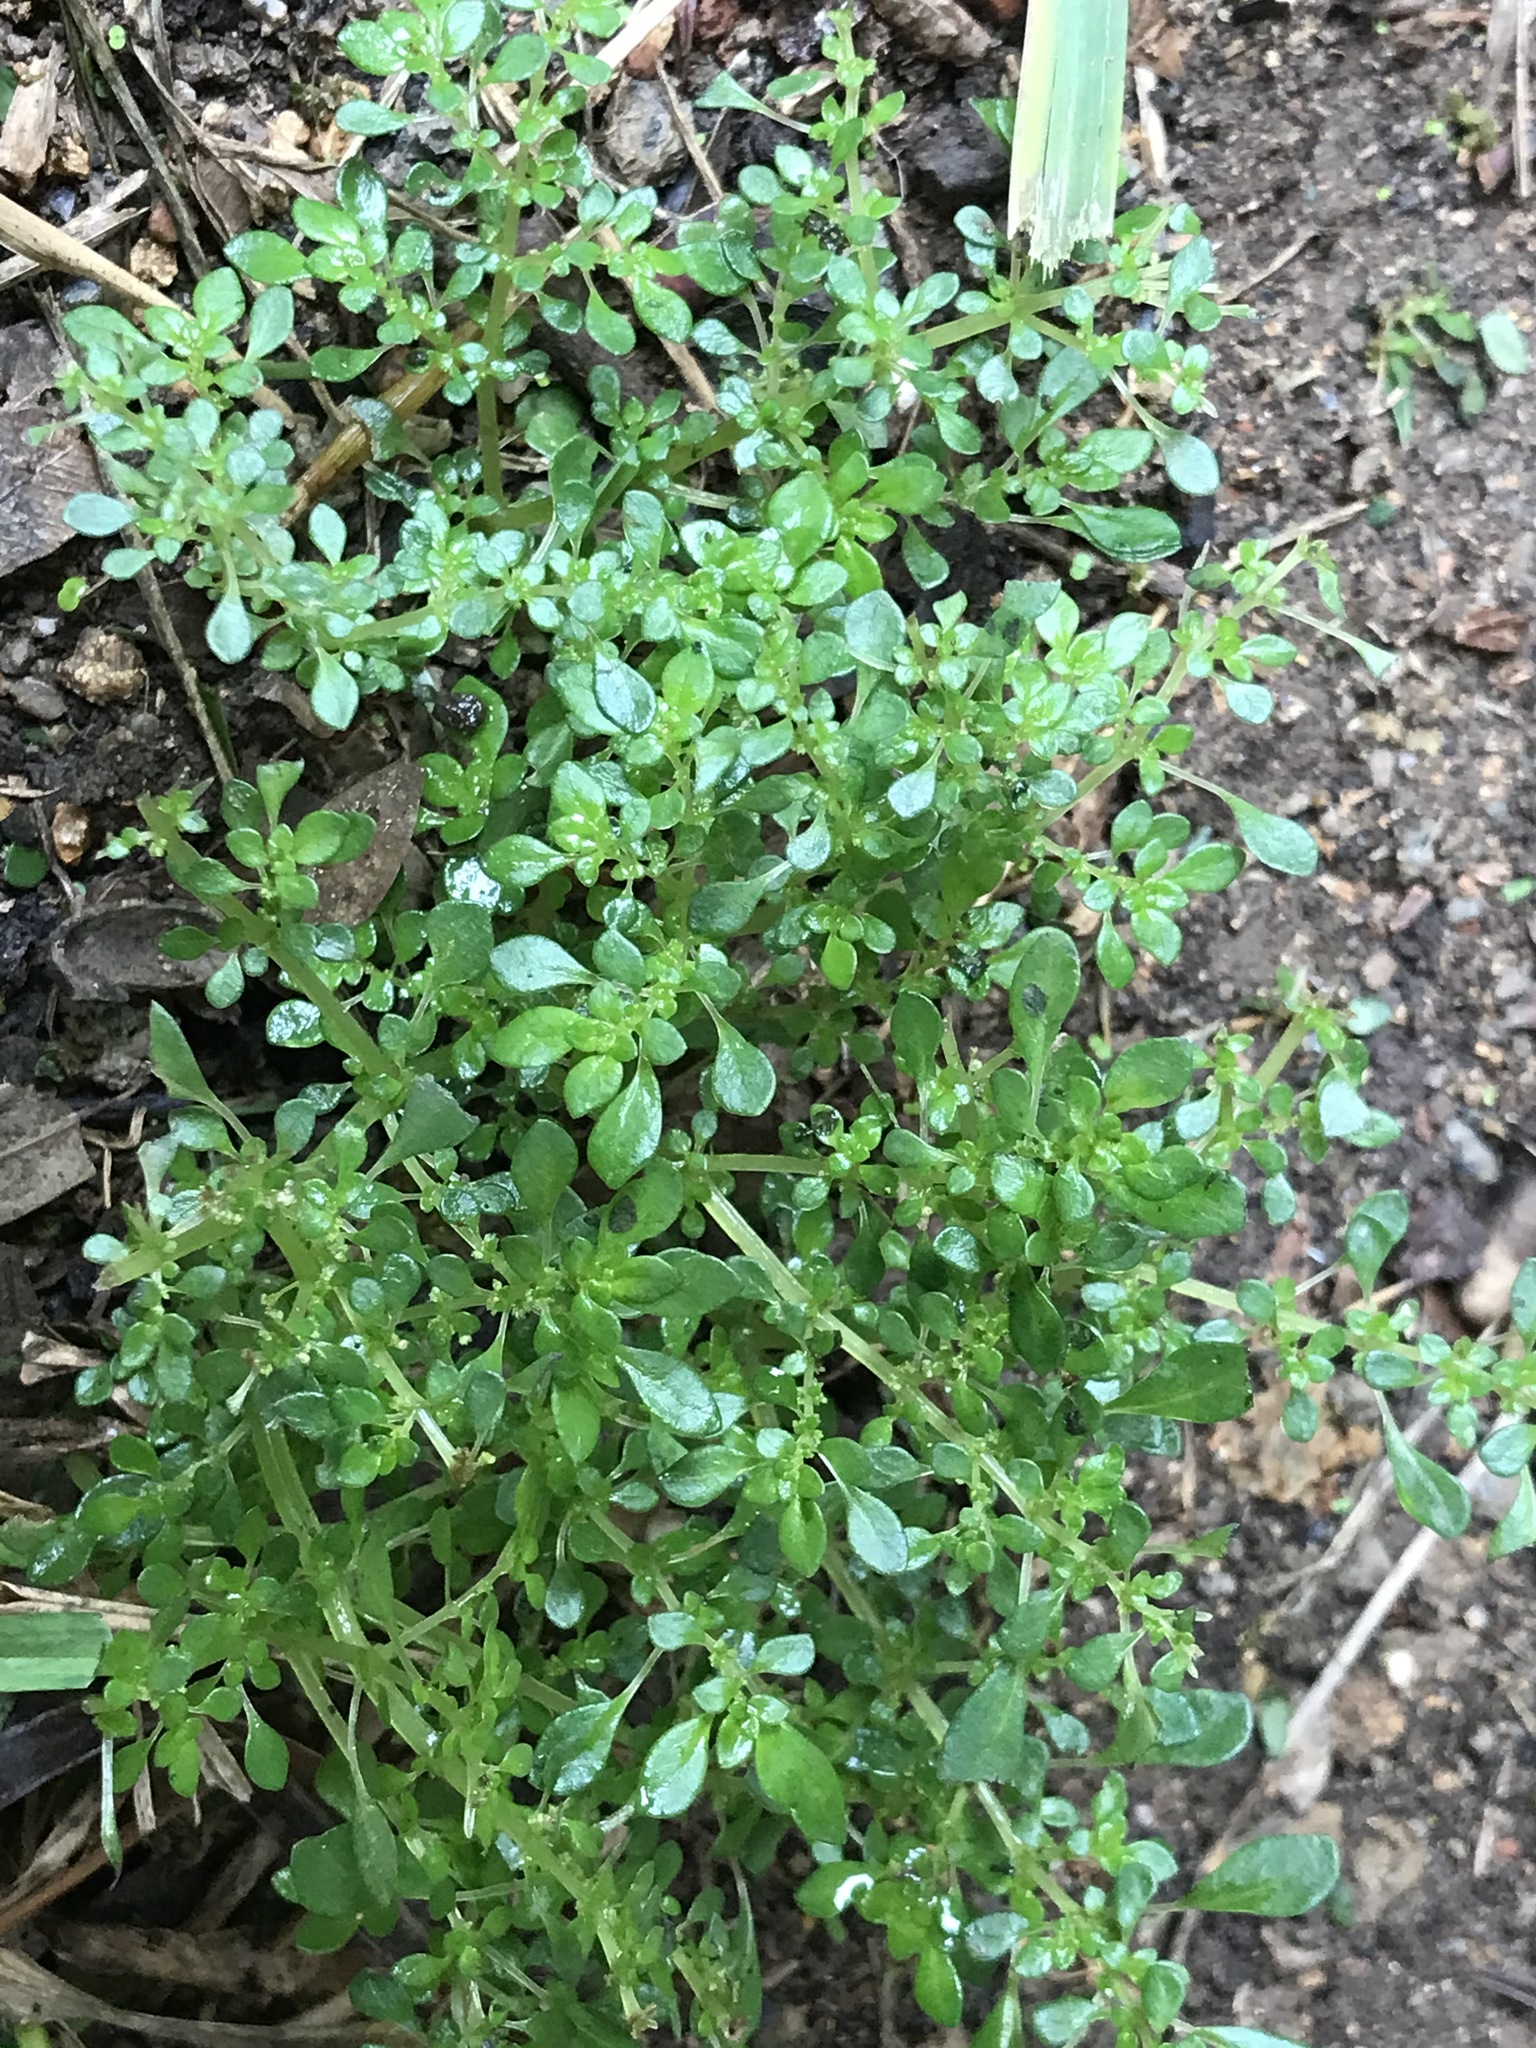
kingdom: Plantae
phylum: Tracheophyta
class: Magnoliopsida
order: Rosales
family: Urticaceae
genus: Pilea
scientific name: Pilea microphylla
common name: Artillery-plant
